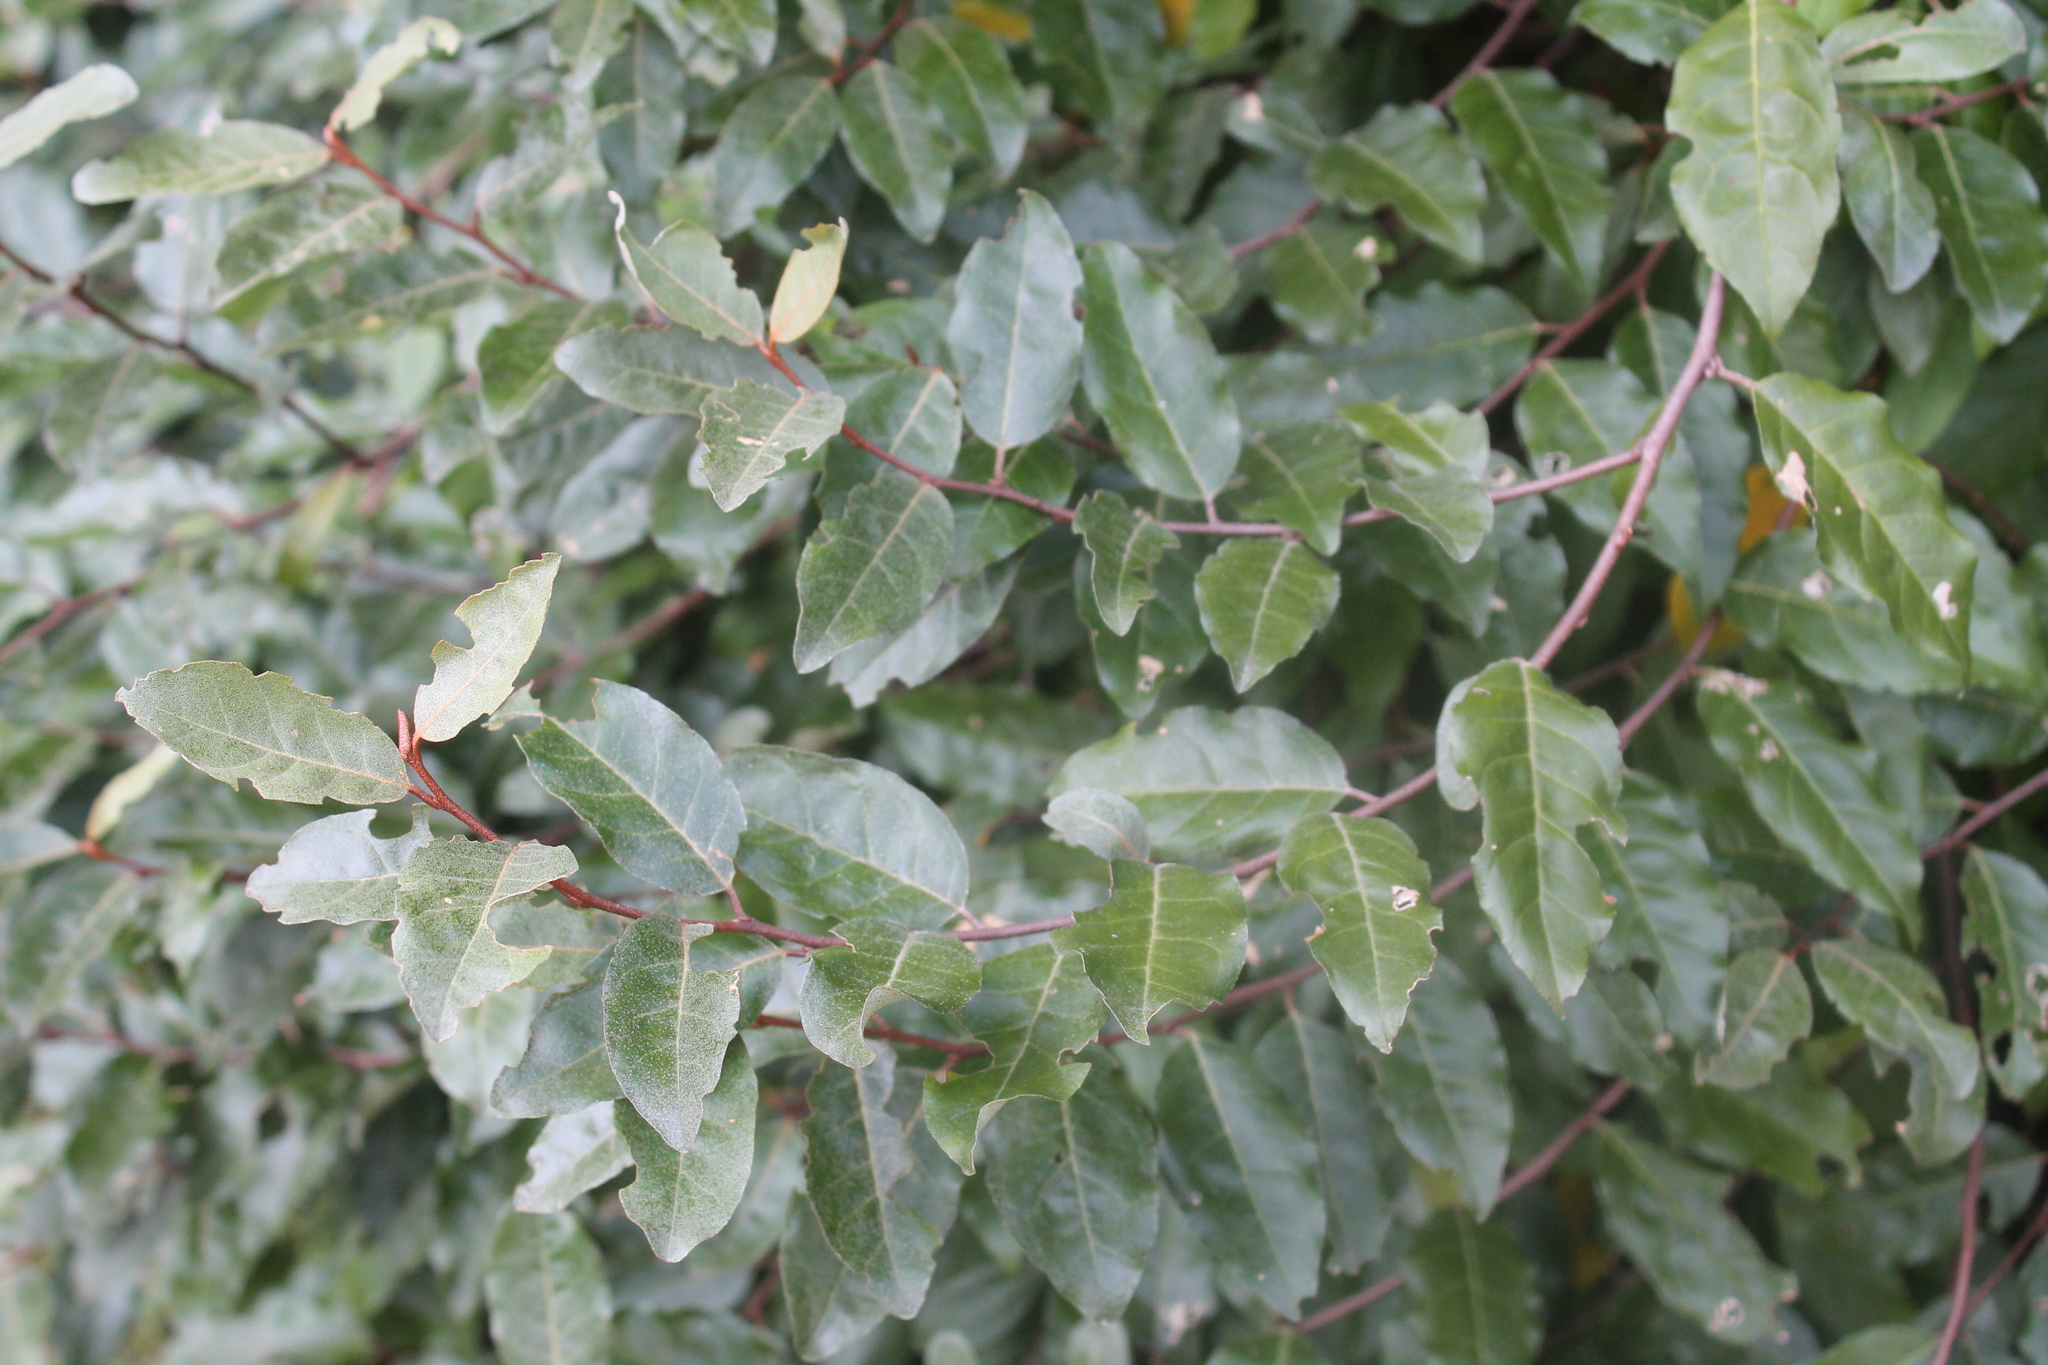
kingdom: Plantae
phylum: Tracheophyta
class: Magnoliopsida
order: Rosales
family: Elaeagnaceae
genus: Elaeagnus
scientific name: Elaeagnus umbellata
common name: Autumn olive
